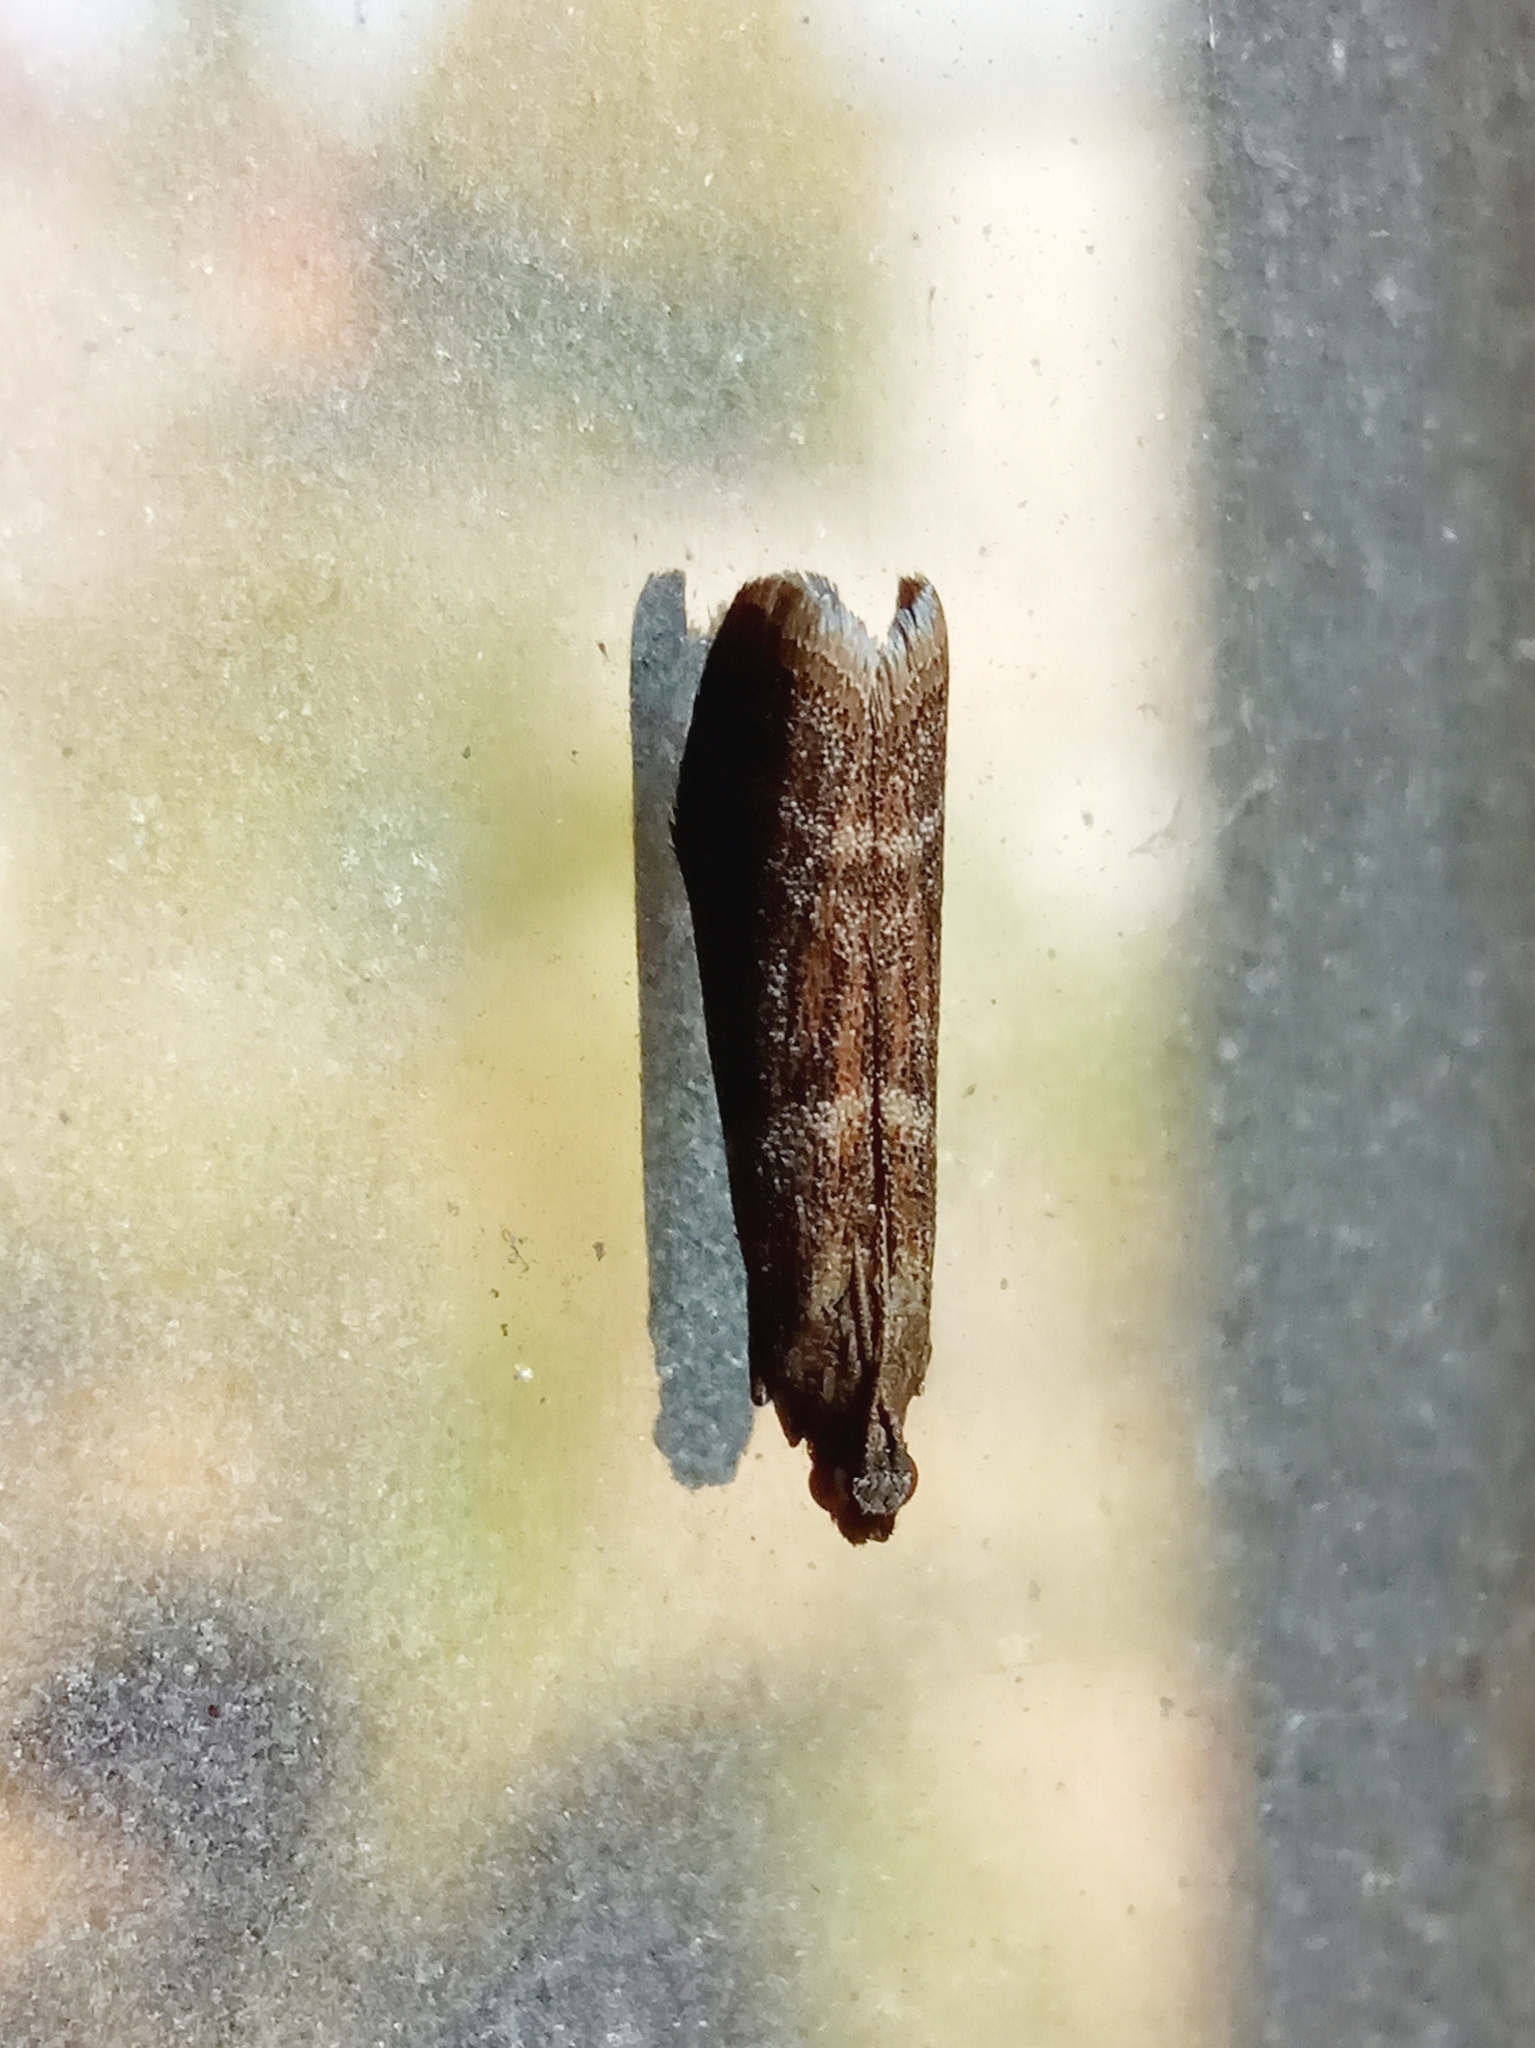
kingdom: Animalia
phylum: Arthropoda
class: Insecta
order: Lepidoptera
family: Pyralidae
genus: Cryptoblabes
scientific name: Cryptoblabes bistriga
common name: Double-striped knot-horn
